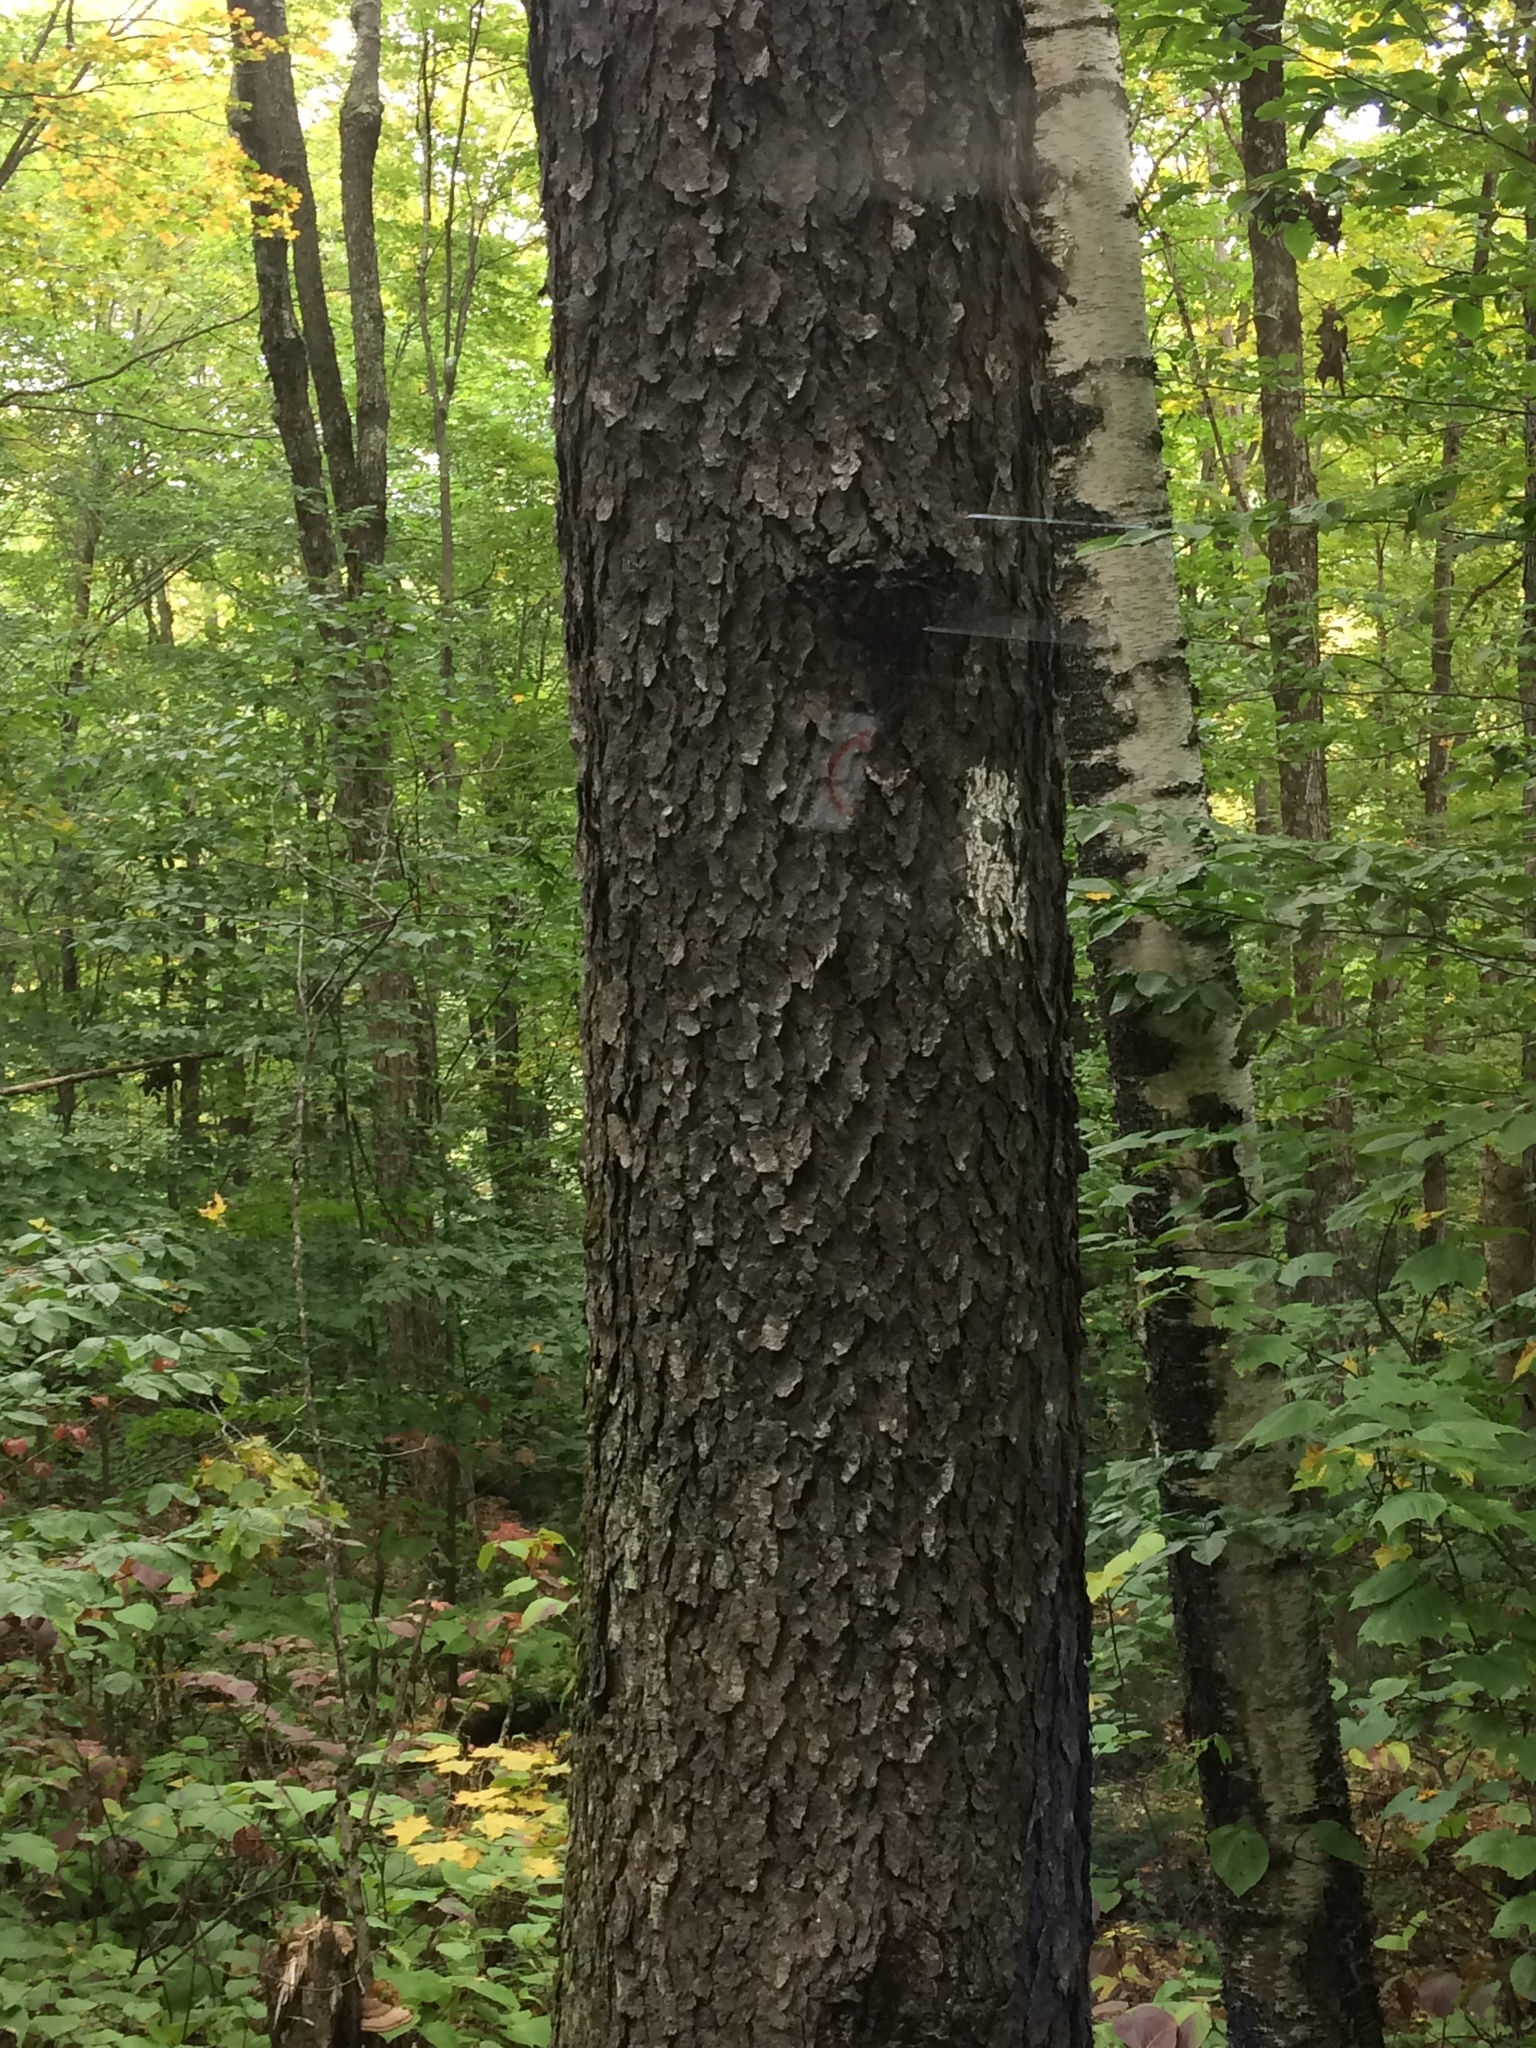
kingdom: Plantae
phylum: Tracheophyta
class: Magnoliopsida
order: Rosales
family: Rosaceae
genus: Prunus
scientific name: Prunus serotina
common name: Black cherry
